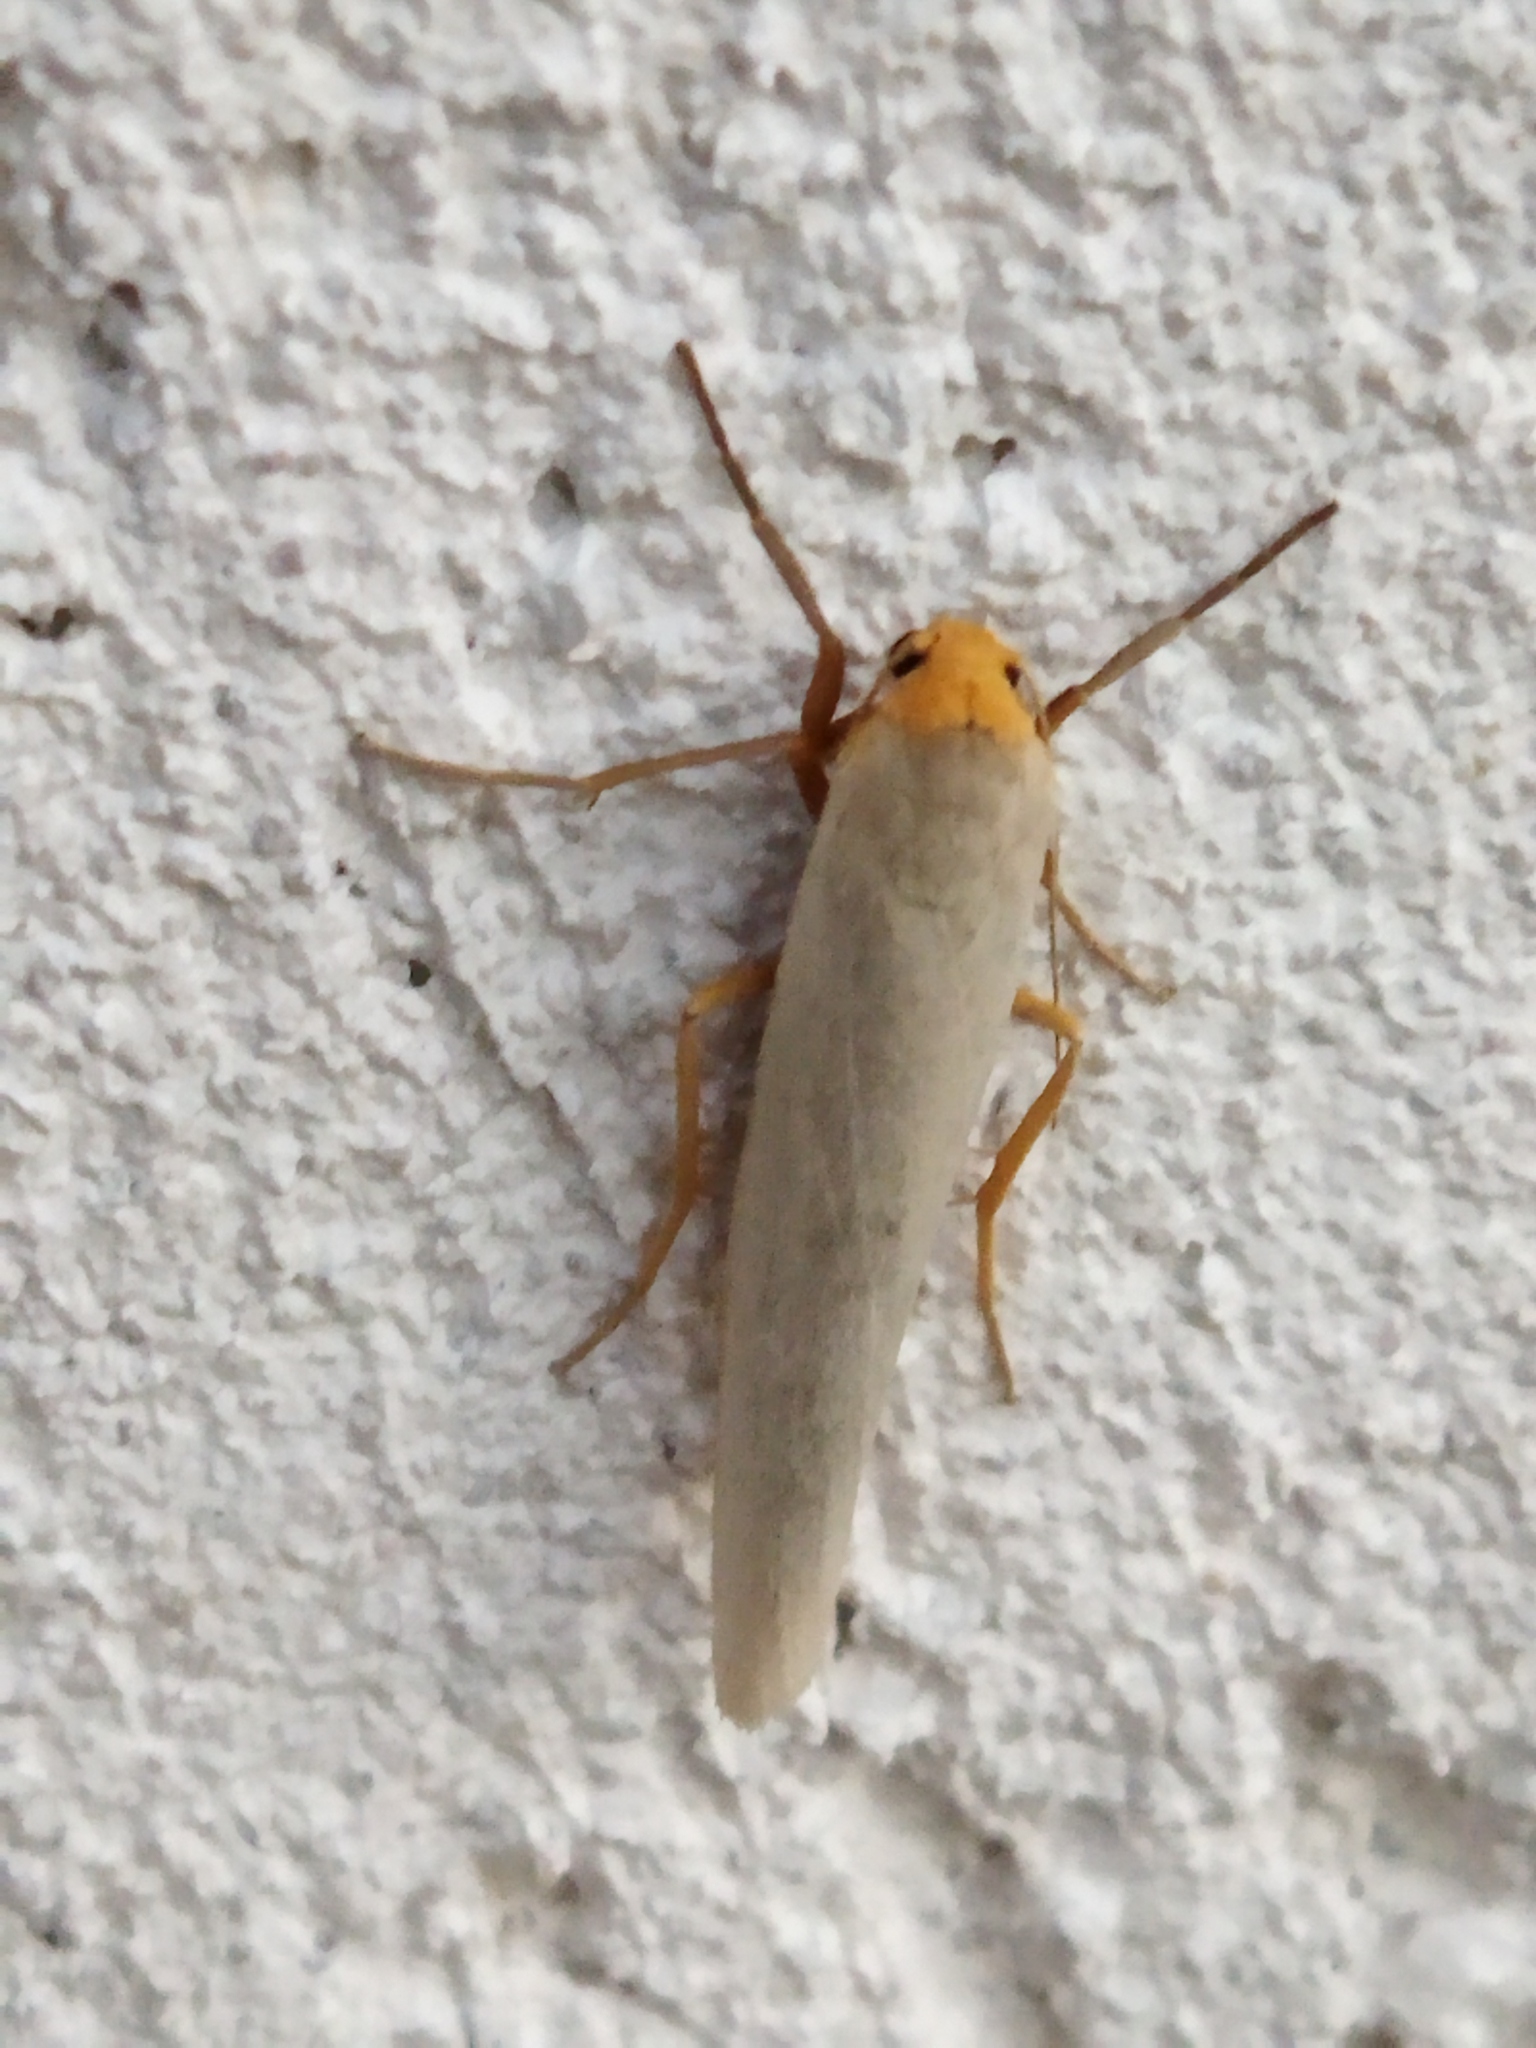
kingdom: Animalia
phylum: Arthropoda
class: Insecta
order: Lepidoptera
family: Erebidae
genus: Eilema
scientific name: Eilema caniola
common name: Hoary footman
